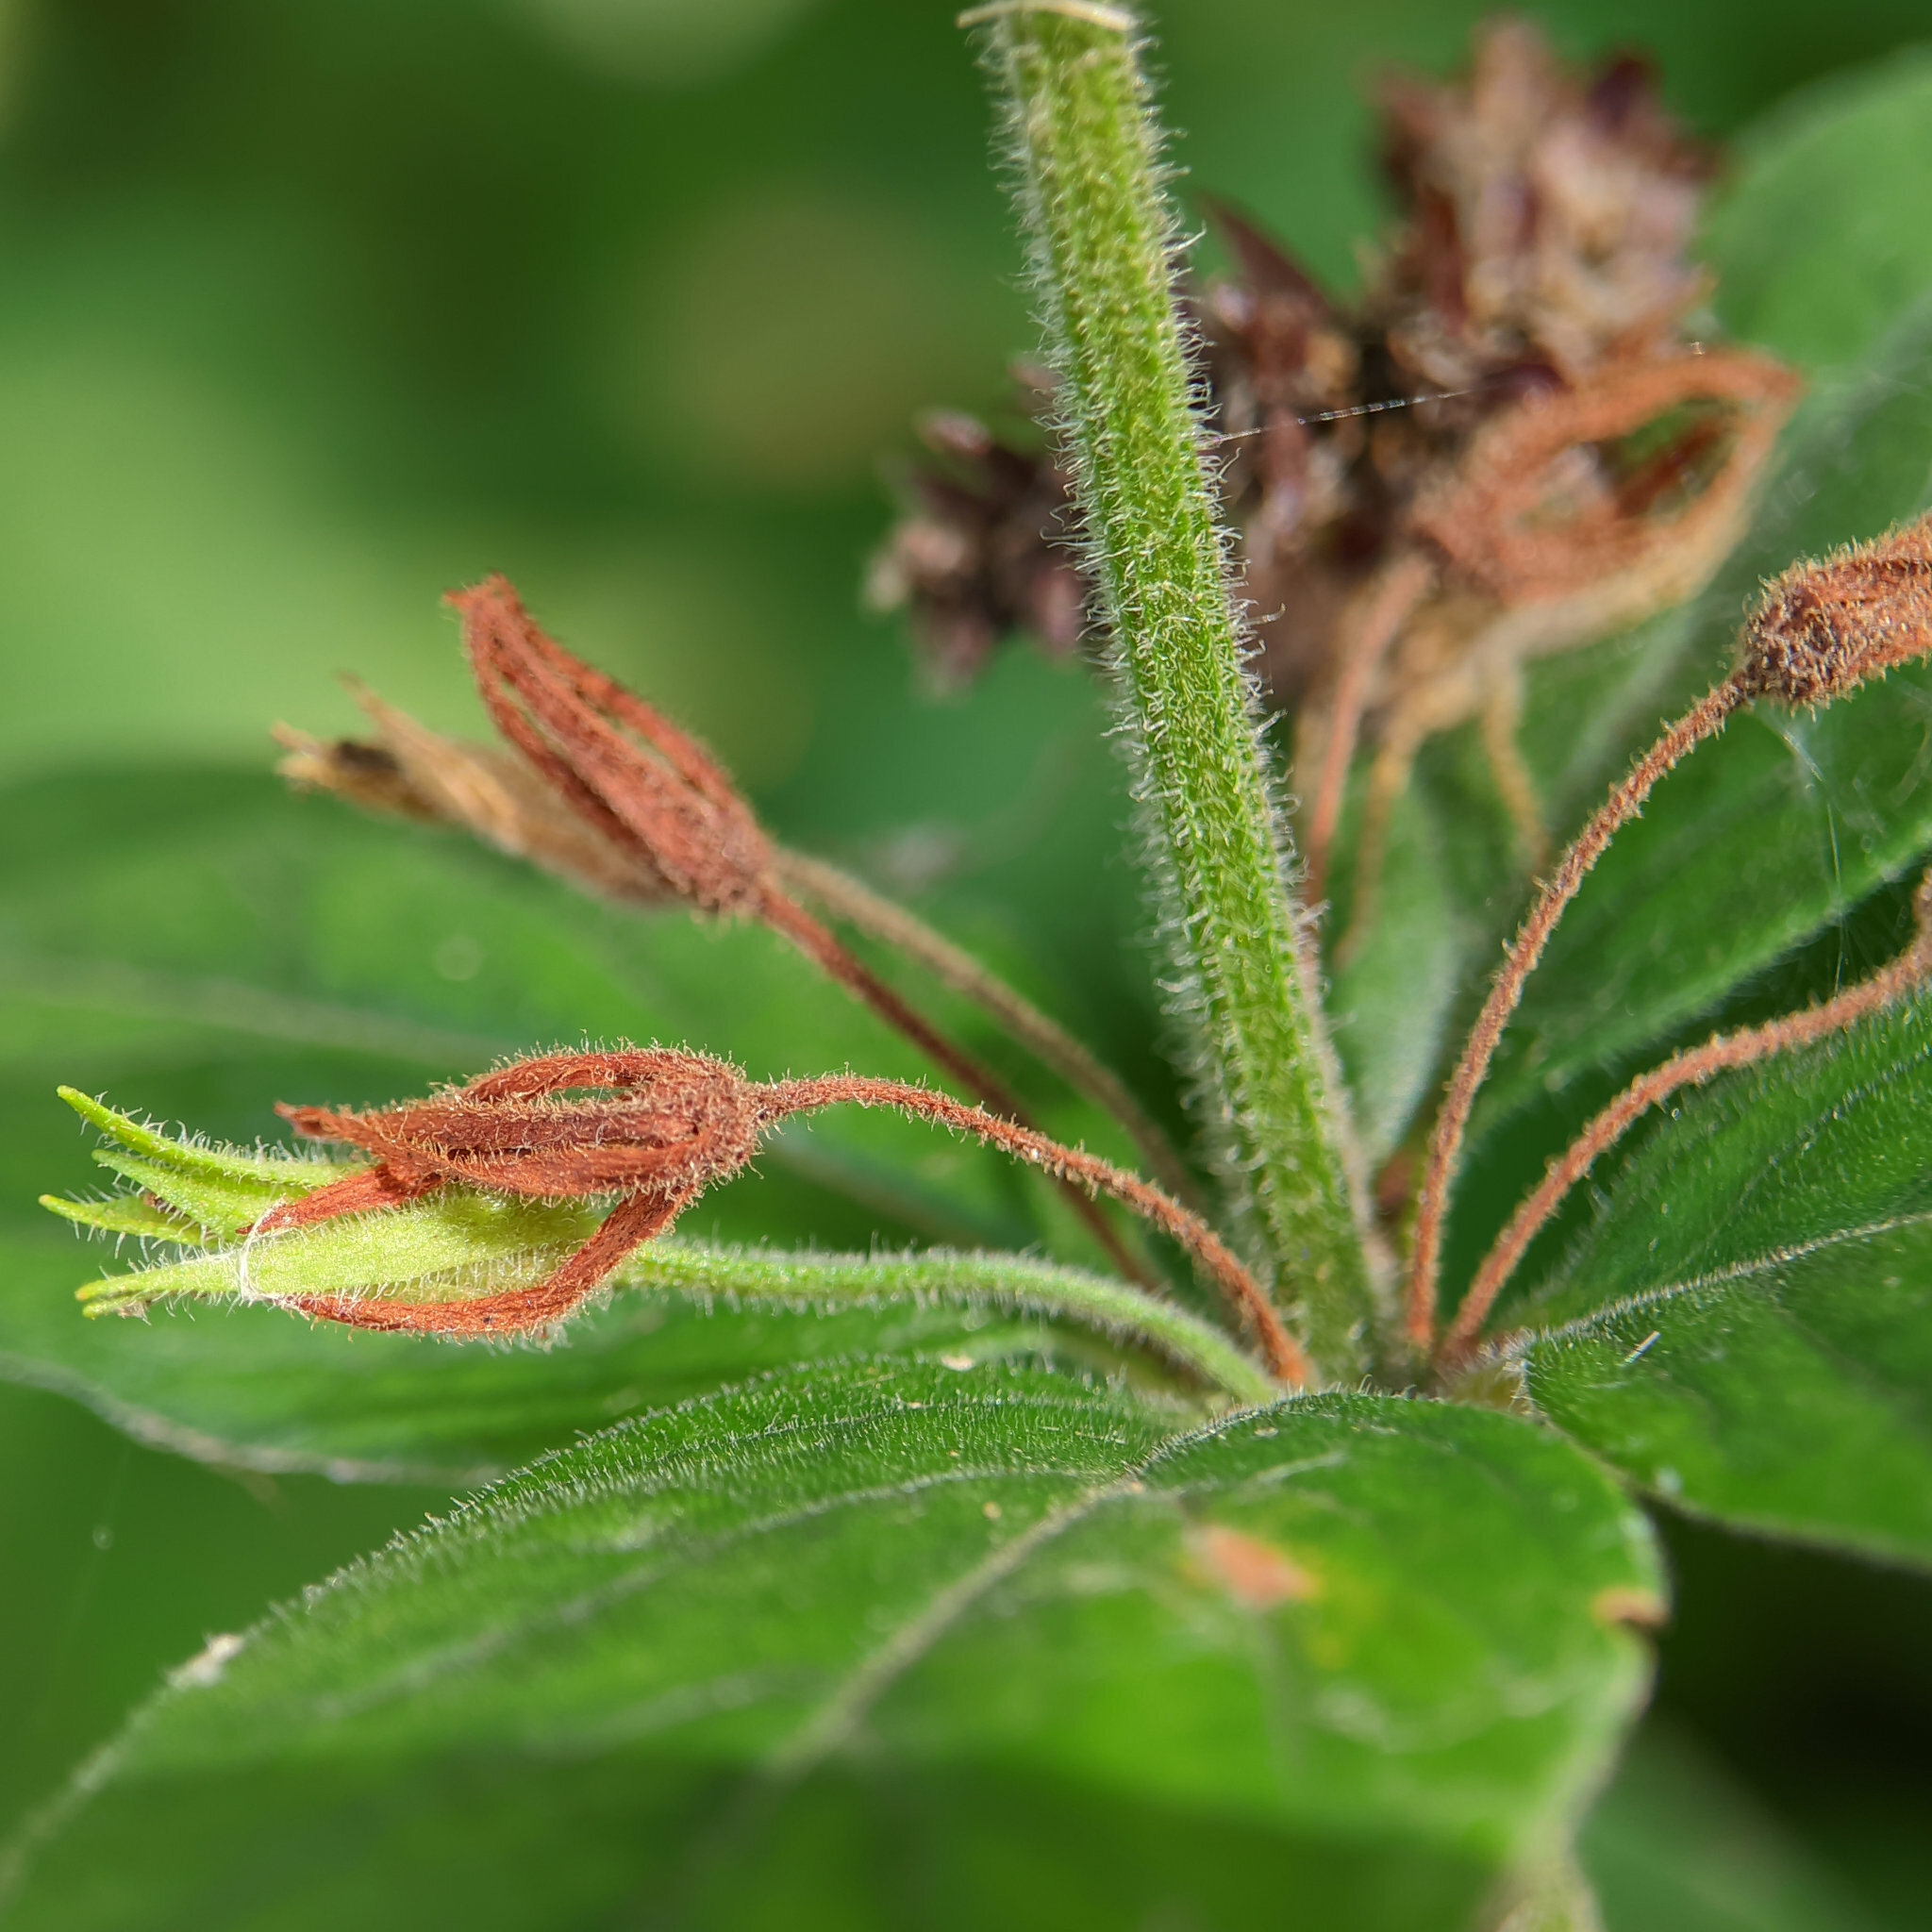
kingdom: Plantae
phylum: Tracheophyta
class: Magnoliopsida
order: Ericales
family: Primulaceae
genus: Lysimachia
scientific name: Lysimachia punctata
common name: Dotted loosestrife
